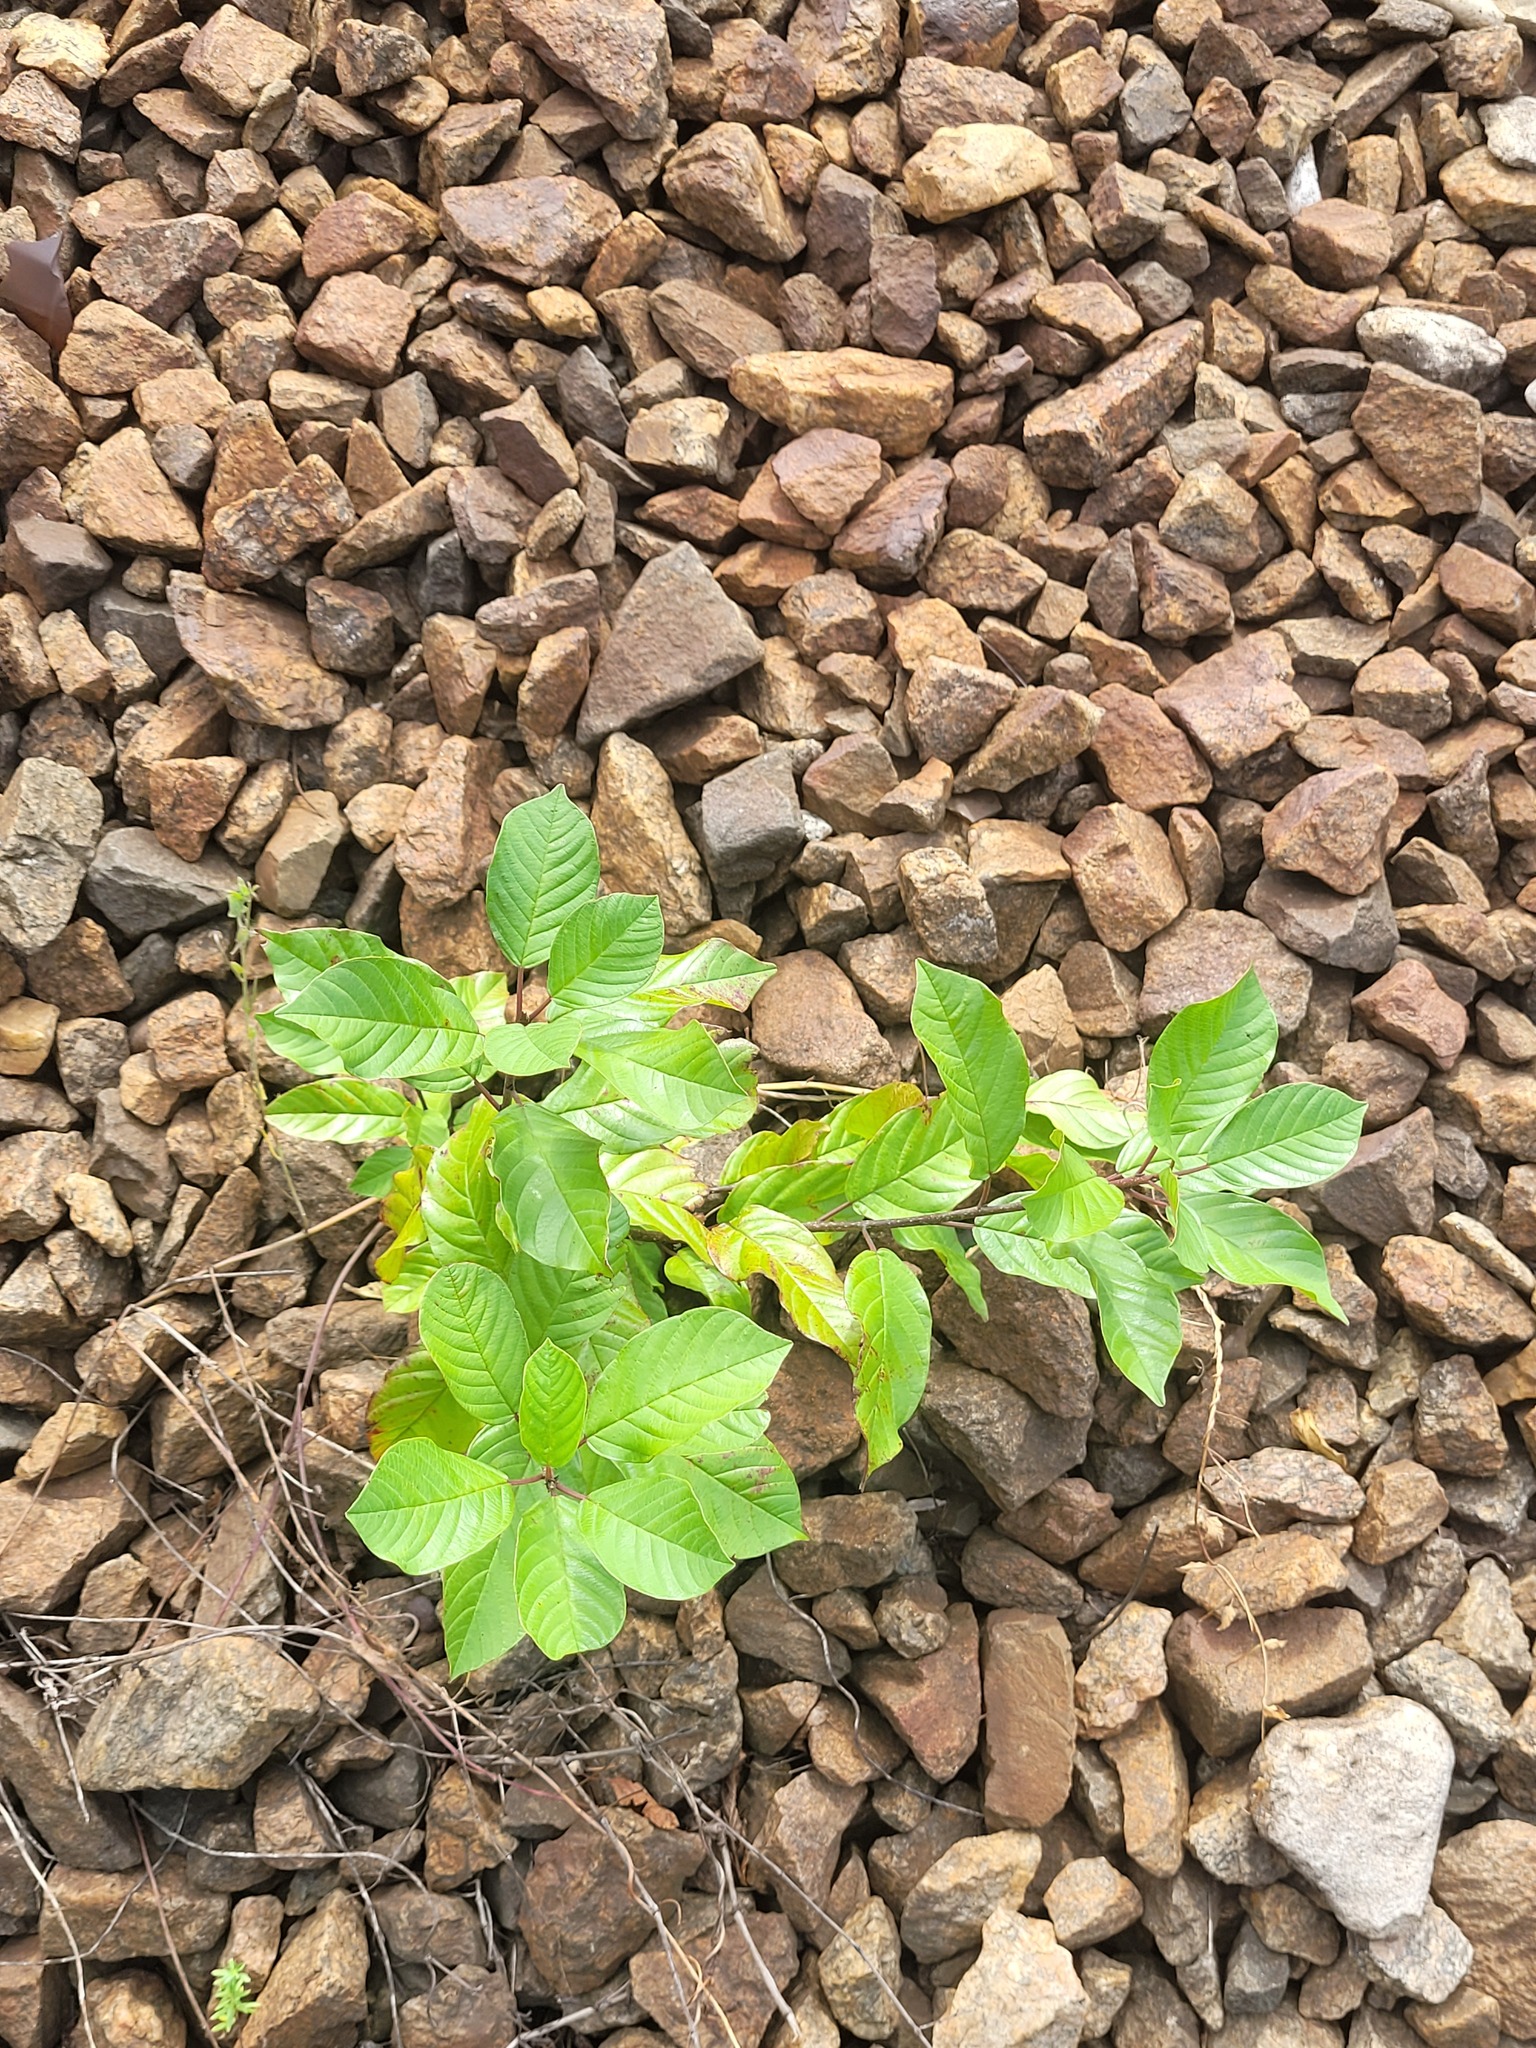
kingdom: Plantae
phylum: Tracheophyta
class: Magnoliopsida
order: Rosales
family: Rhamnaceae
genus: Frangula
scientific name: Frangula alnus
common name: Alder buckthorn
